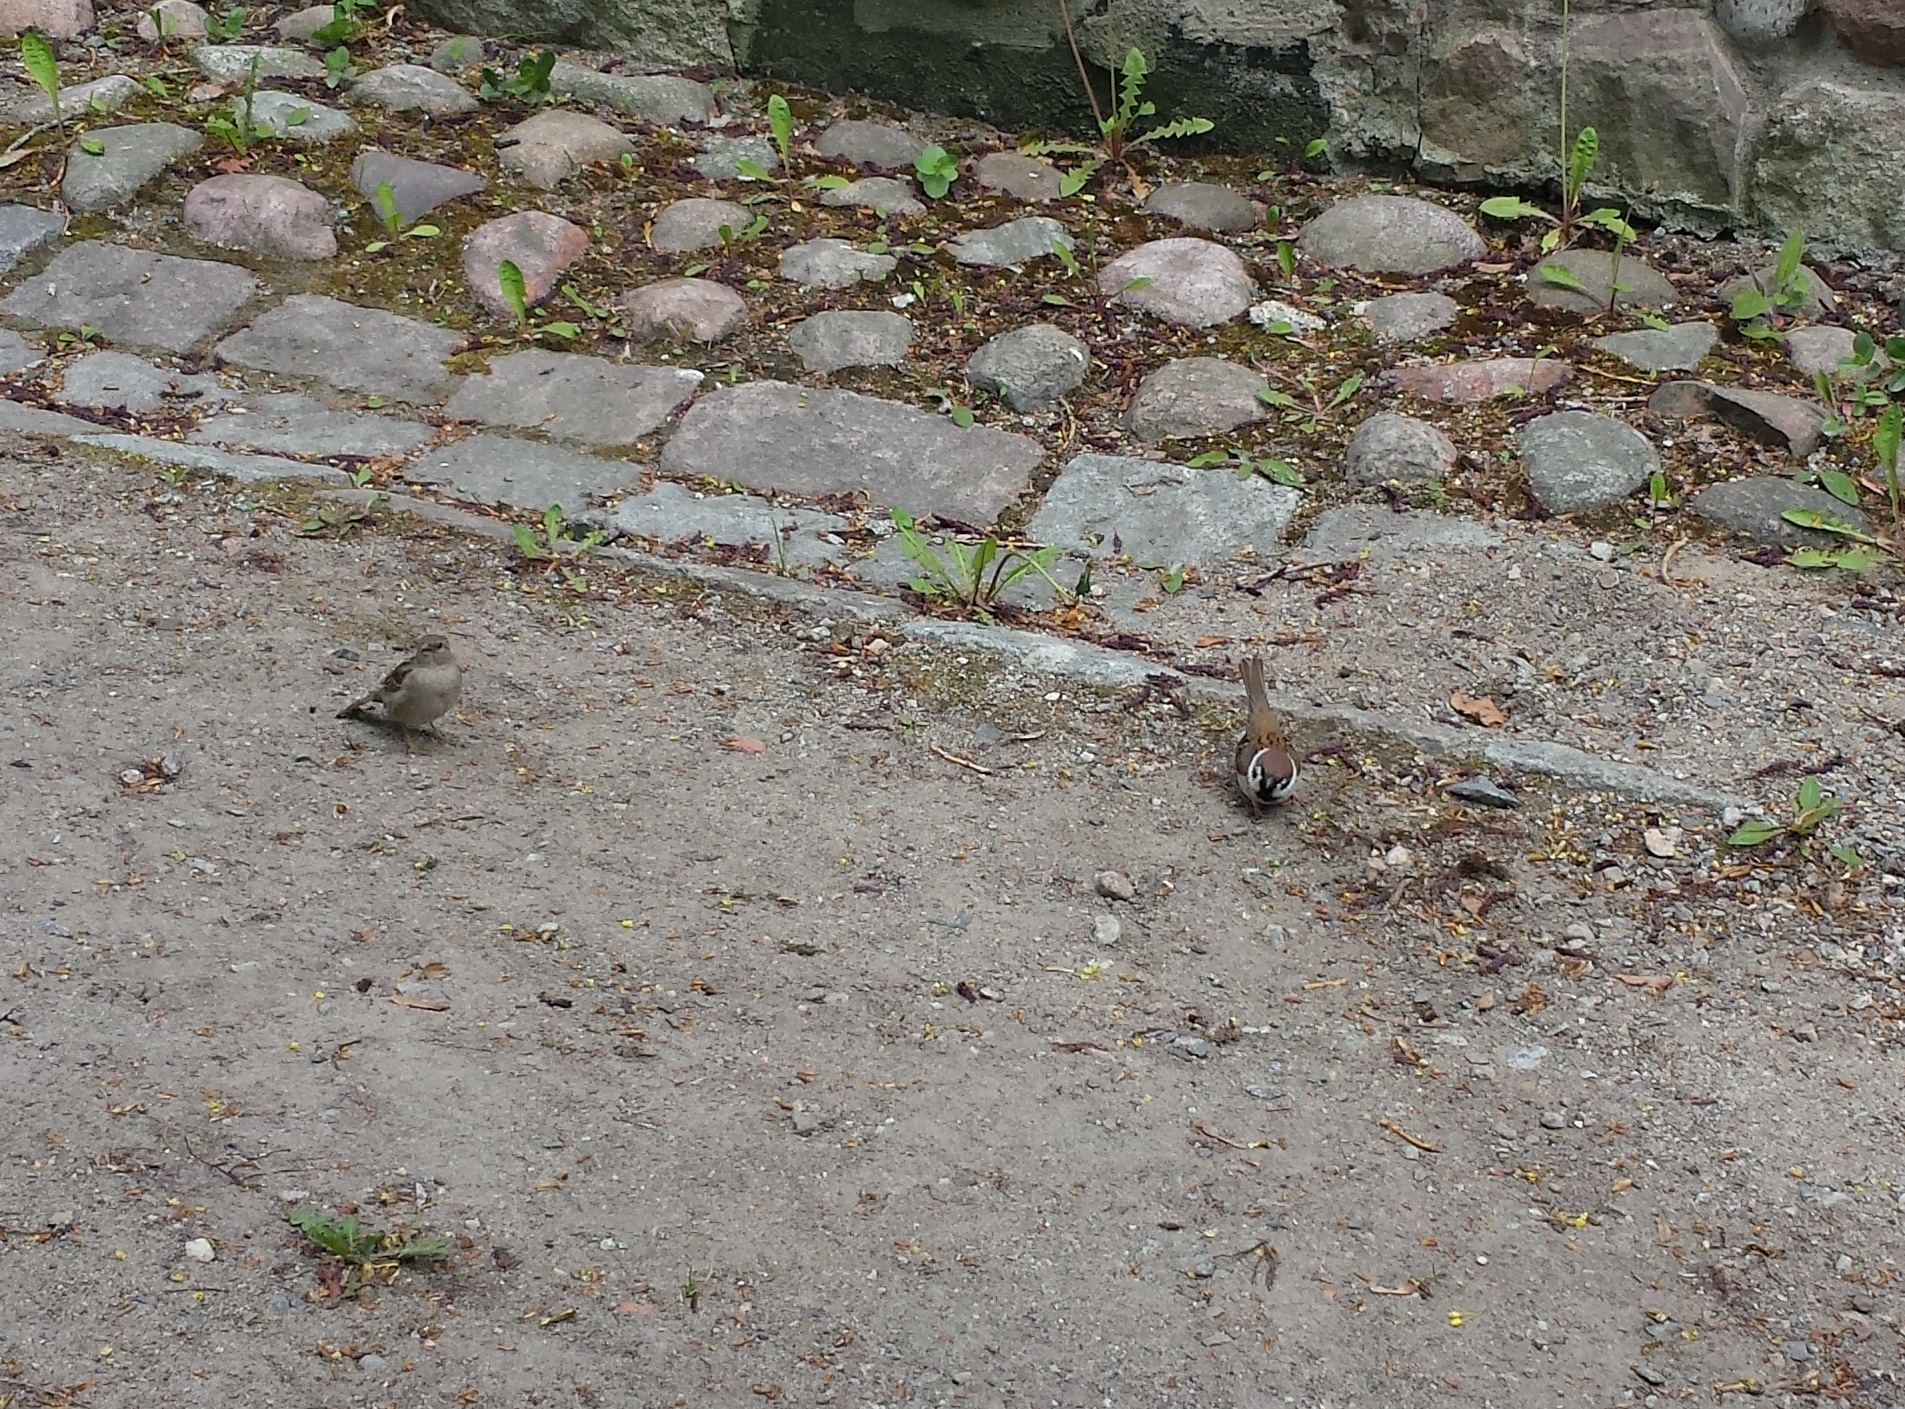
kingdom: Animalia
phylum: Chordata
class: Aves
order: Passeriformes
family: Passeridae
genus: Passer
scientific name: Passer montanus
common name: Eurasian tree sparrow
